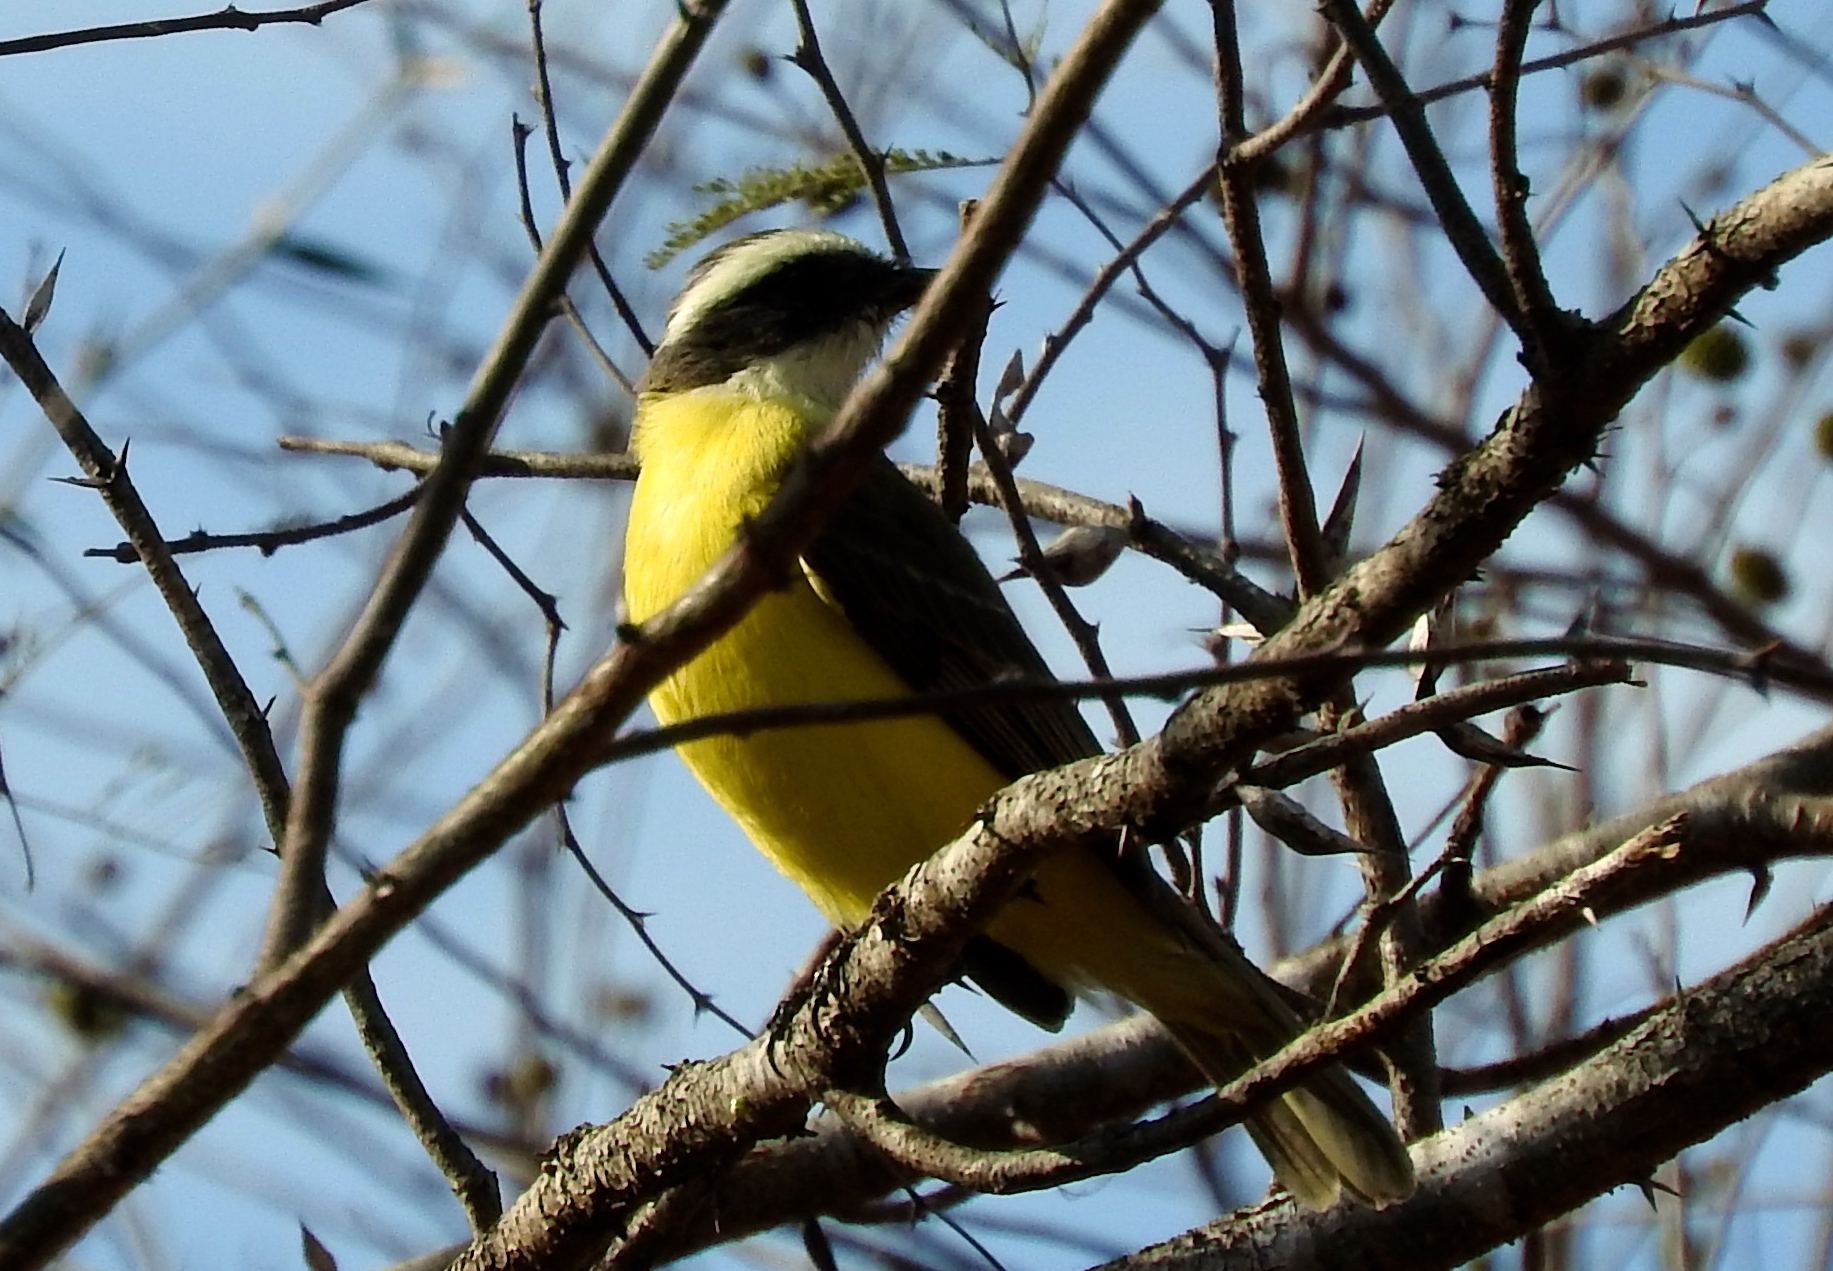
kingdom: Animalia
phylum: Chordata
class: Aves
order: Passeriformes
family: Tyrannidae
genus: Myiozetetes
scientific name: Myiozetetes similis
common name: Social flycatcher
